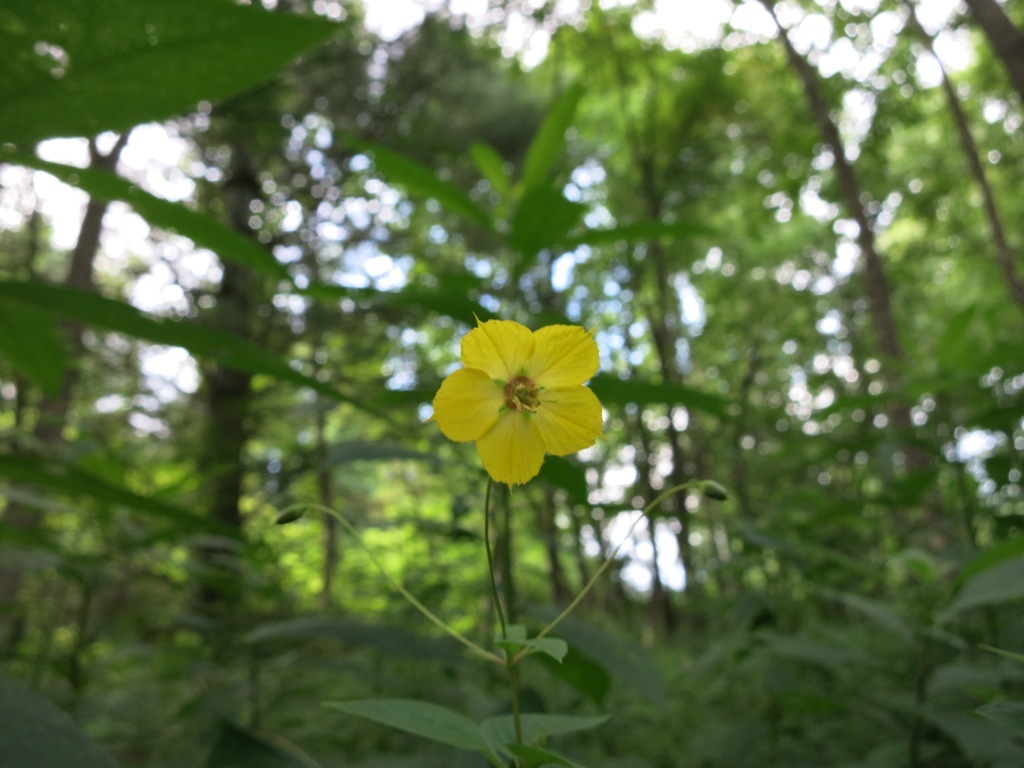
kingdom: Plantae
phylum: Tracheophyta
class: Magnoliopsida
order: Ericales
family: Primulaceae
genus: Lysimachia
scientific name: Lysimachia ciliata
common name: Fringed loosestrife
